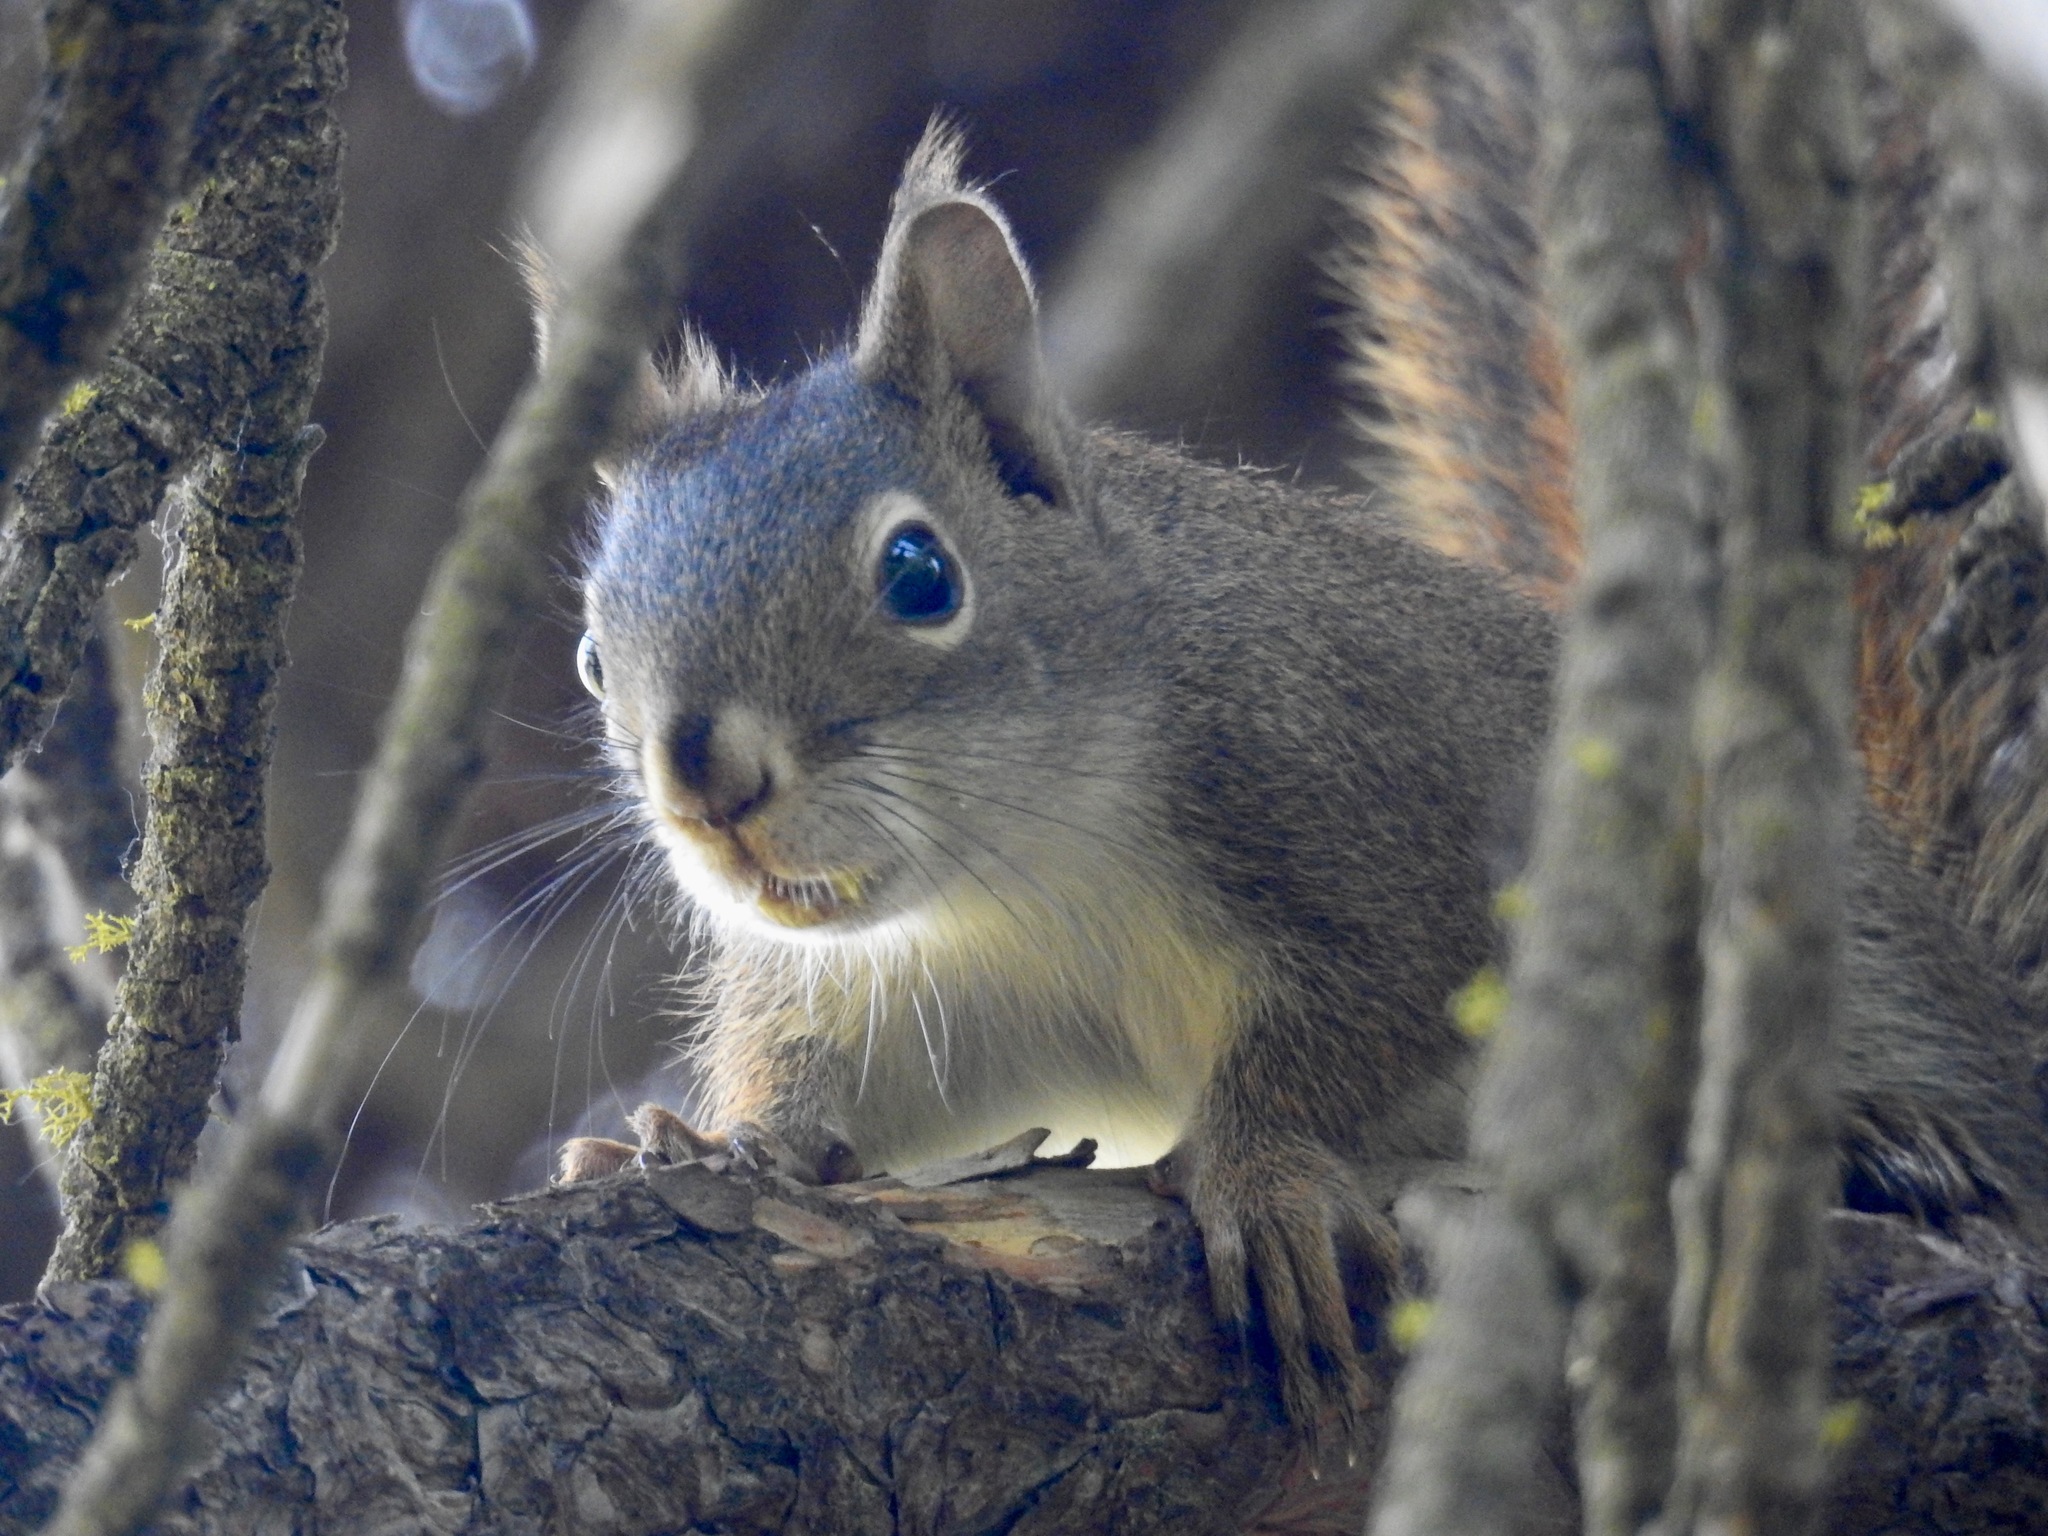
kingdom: Animalia
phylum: Chordata
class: Mammalia
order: Rodentia
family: Sciuridae
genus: Tamiasciurus
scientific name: Tamiasciurus hudsonicus
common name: Red squirrel
